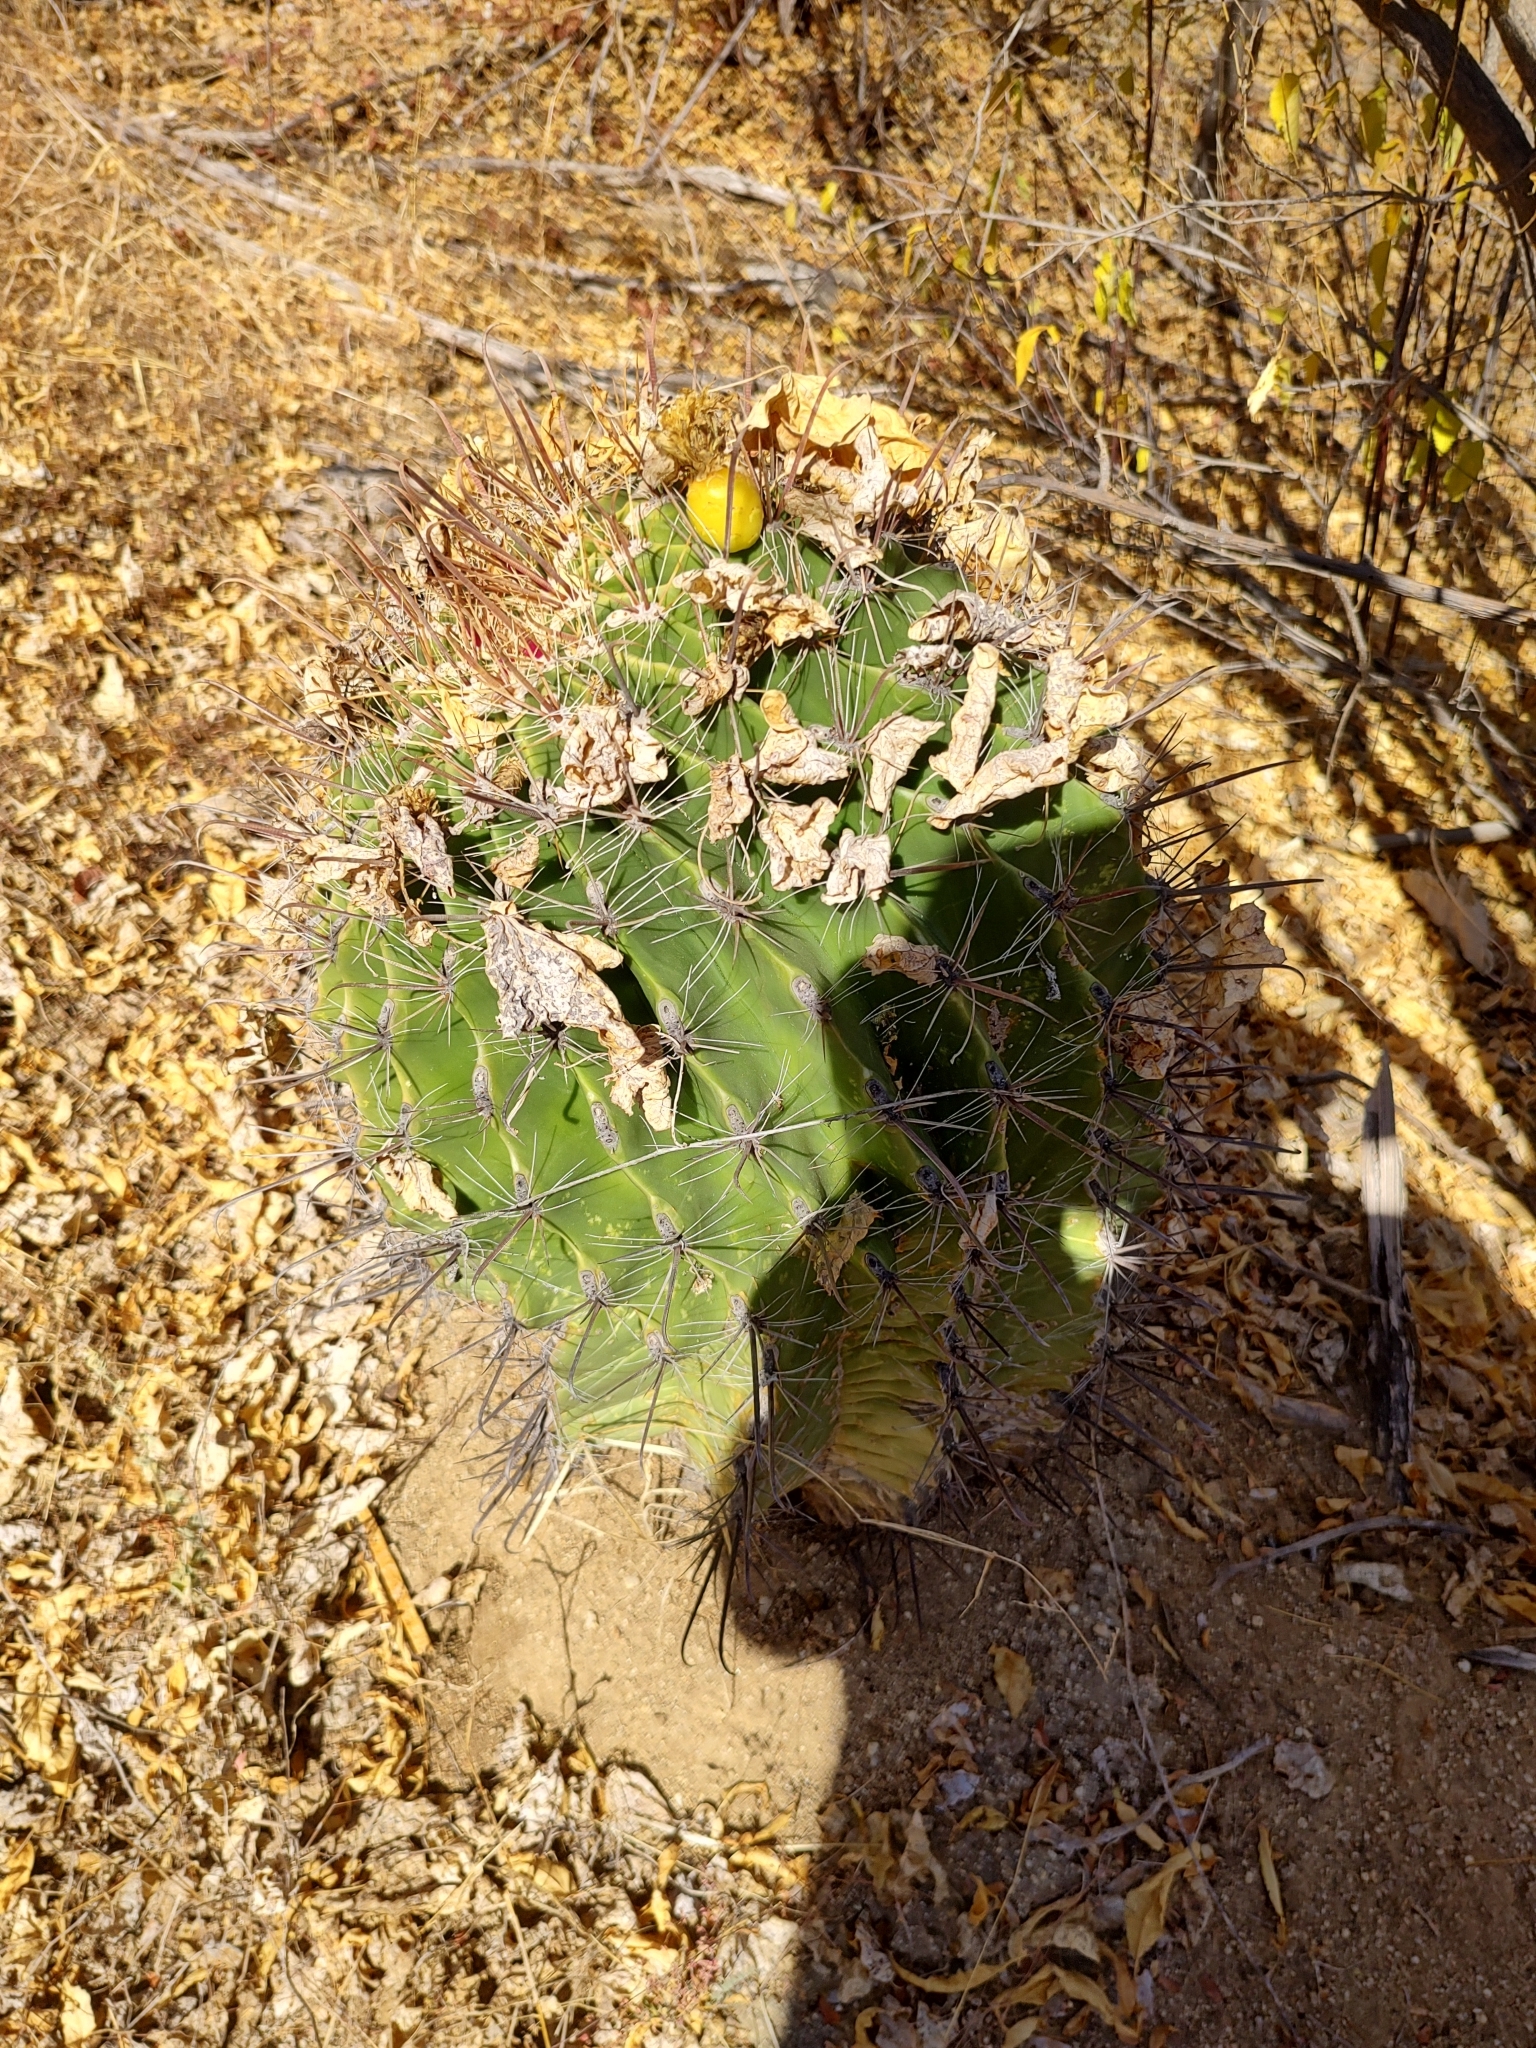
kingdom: Plantae
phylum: Tracheophyta
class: Magnoliopsida
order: Caryophyllales
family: Cactaceae
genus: Ferocactus
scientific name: Ferocactus townsendianus
